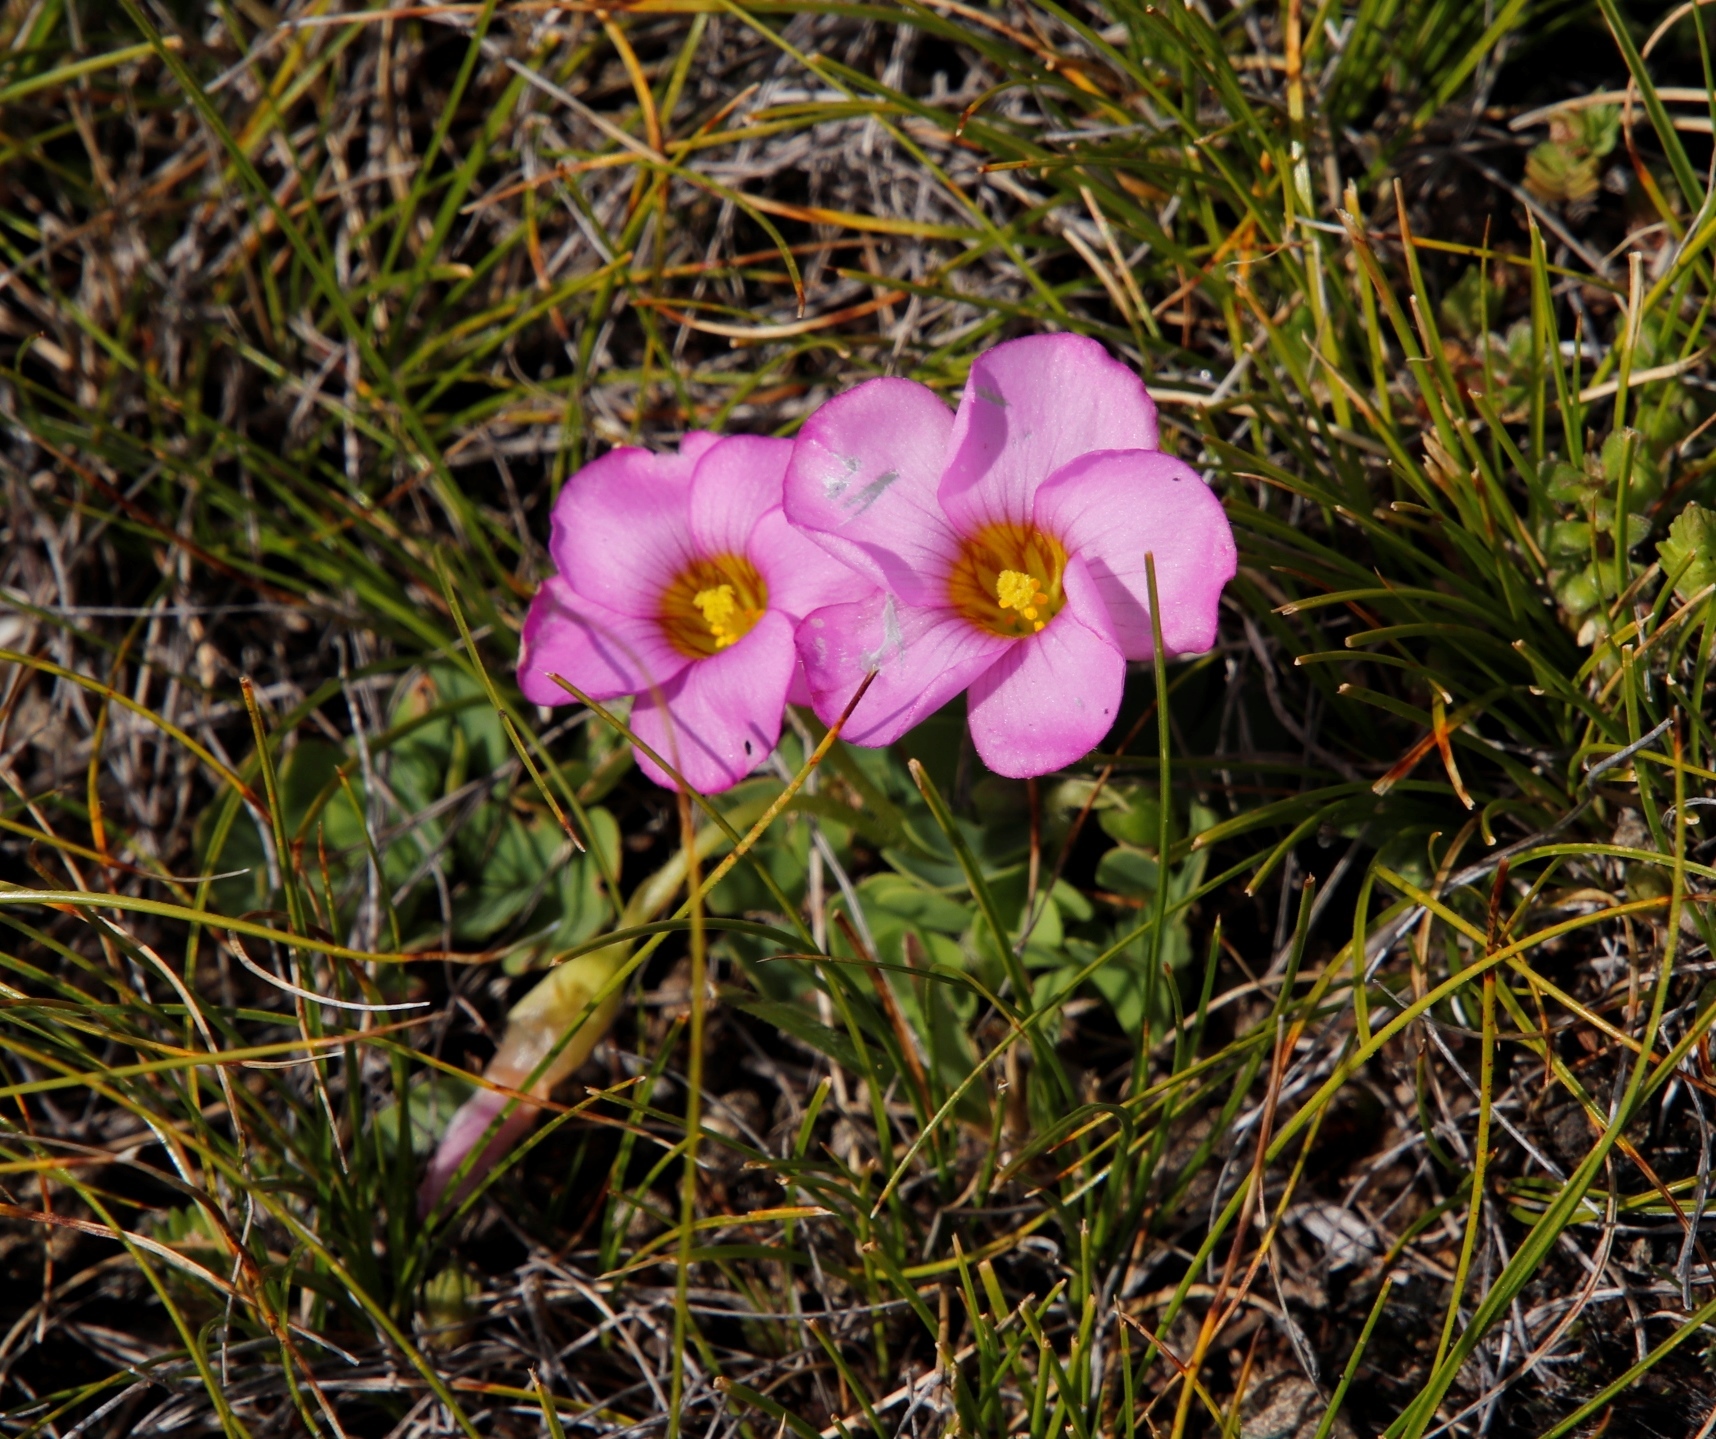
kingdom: Plantae
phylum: Tracheophyta
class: Magnoliopsida
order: Oxalidales
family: Oxalidaceae
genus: Oxalis
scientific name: Oxalis obliquifolia
